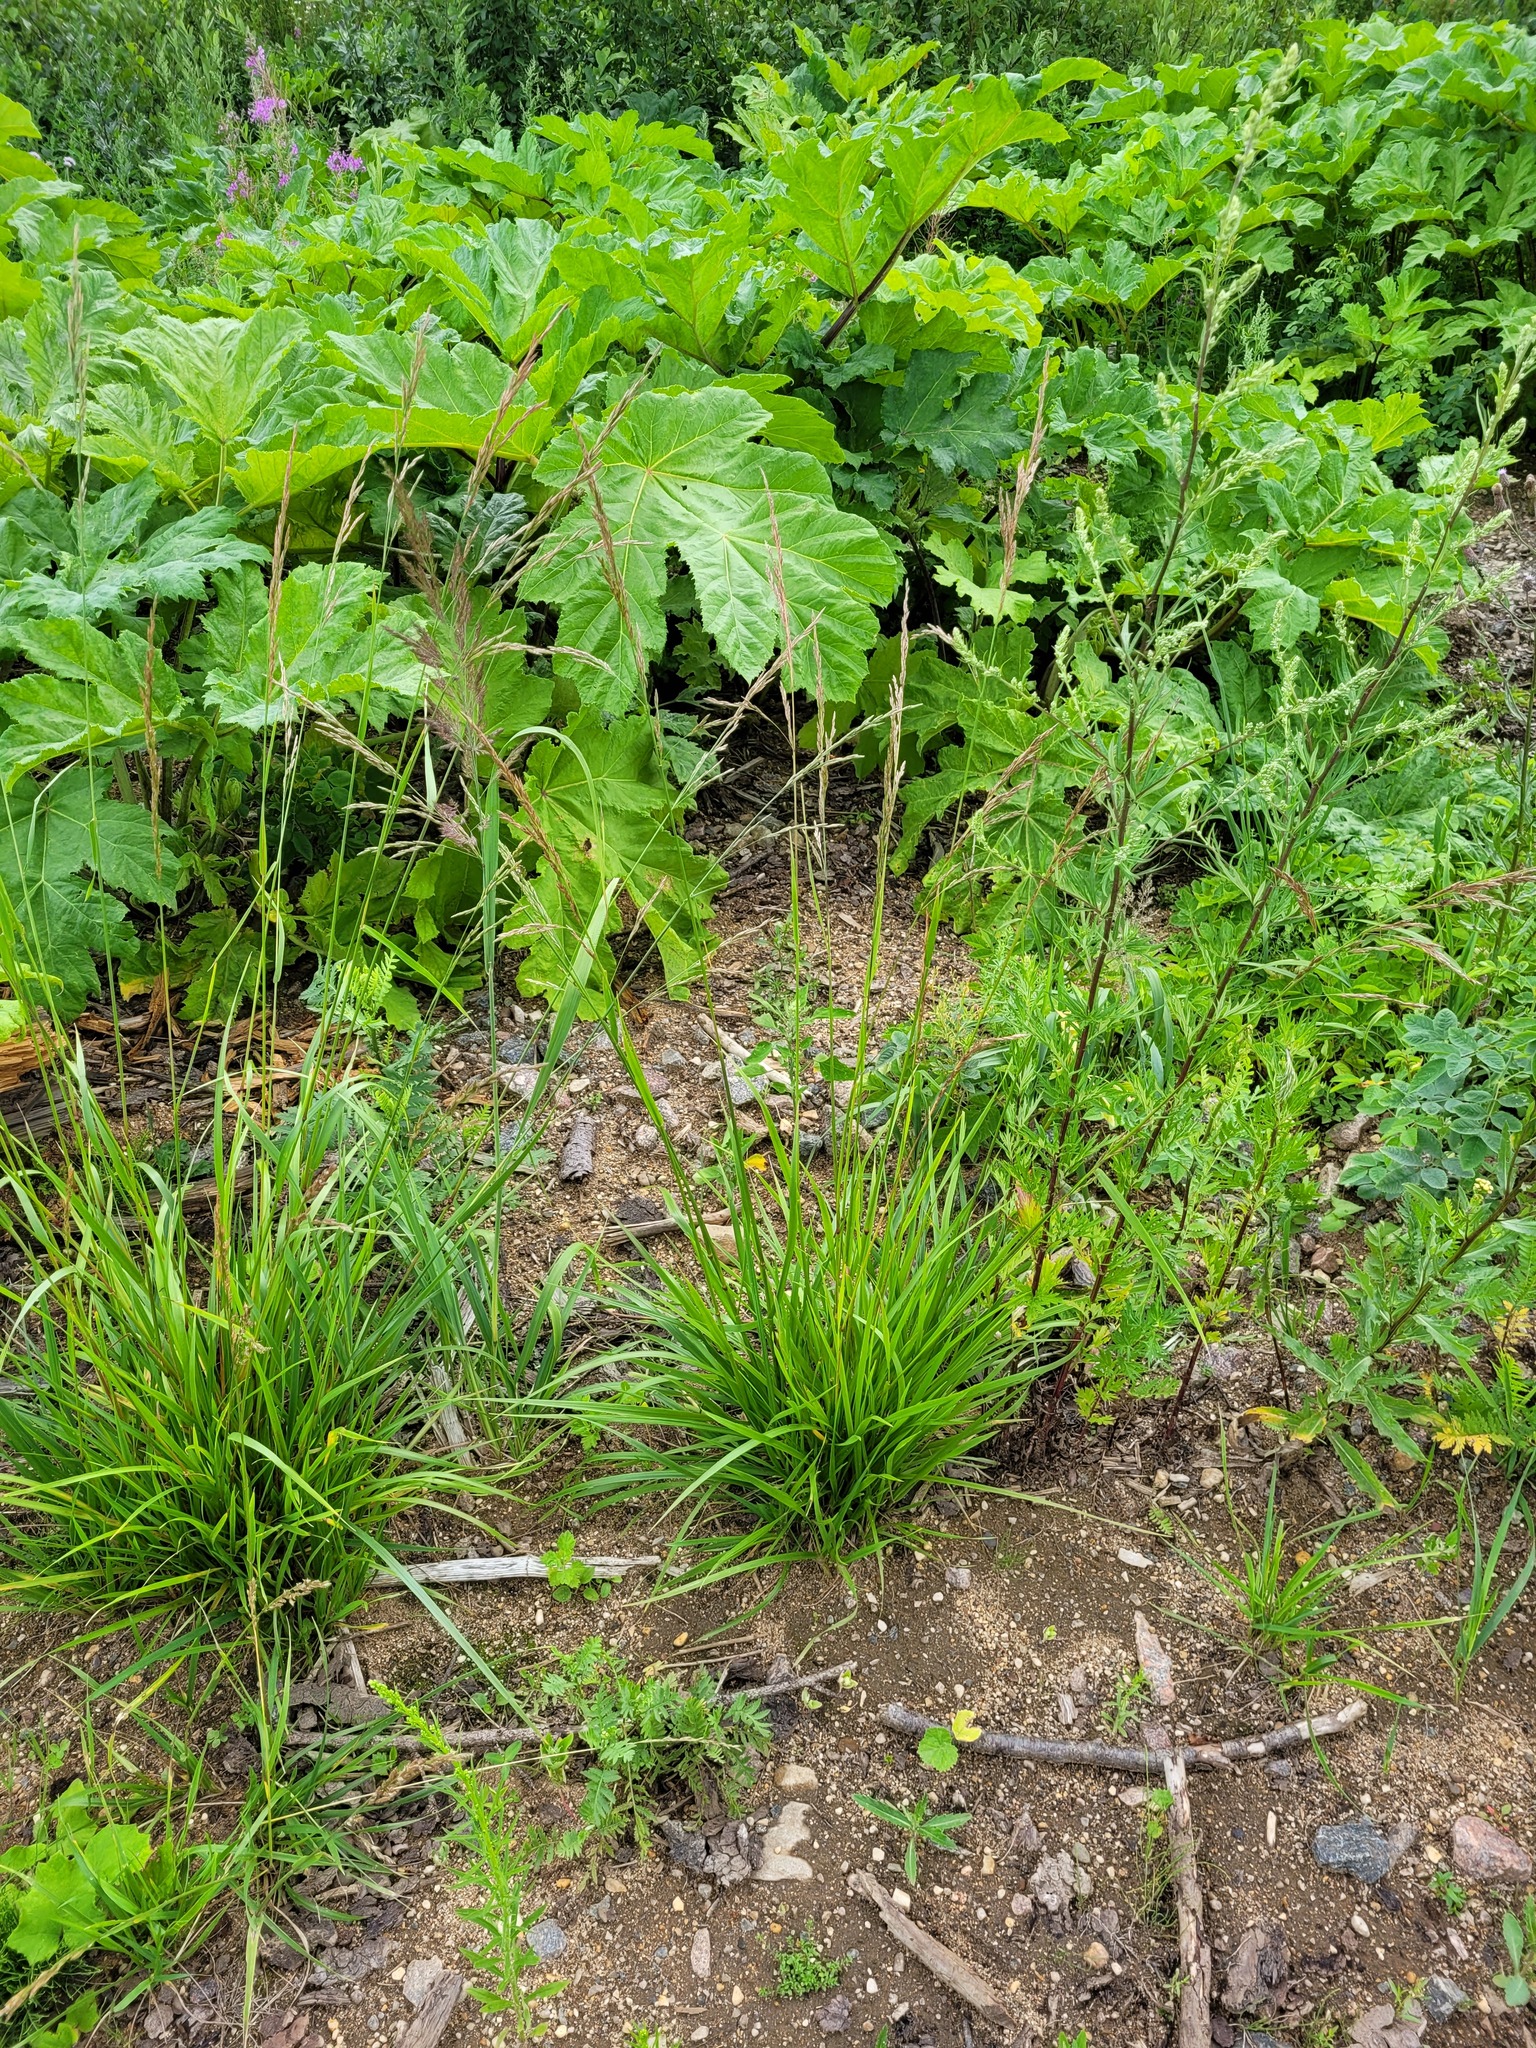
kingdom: Plantae
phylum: Tracheophyta
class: Liliopsida
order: Poales
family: Poaceae
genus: Lolium
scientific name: Lolium arundinaceum
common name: Reed fescue
